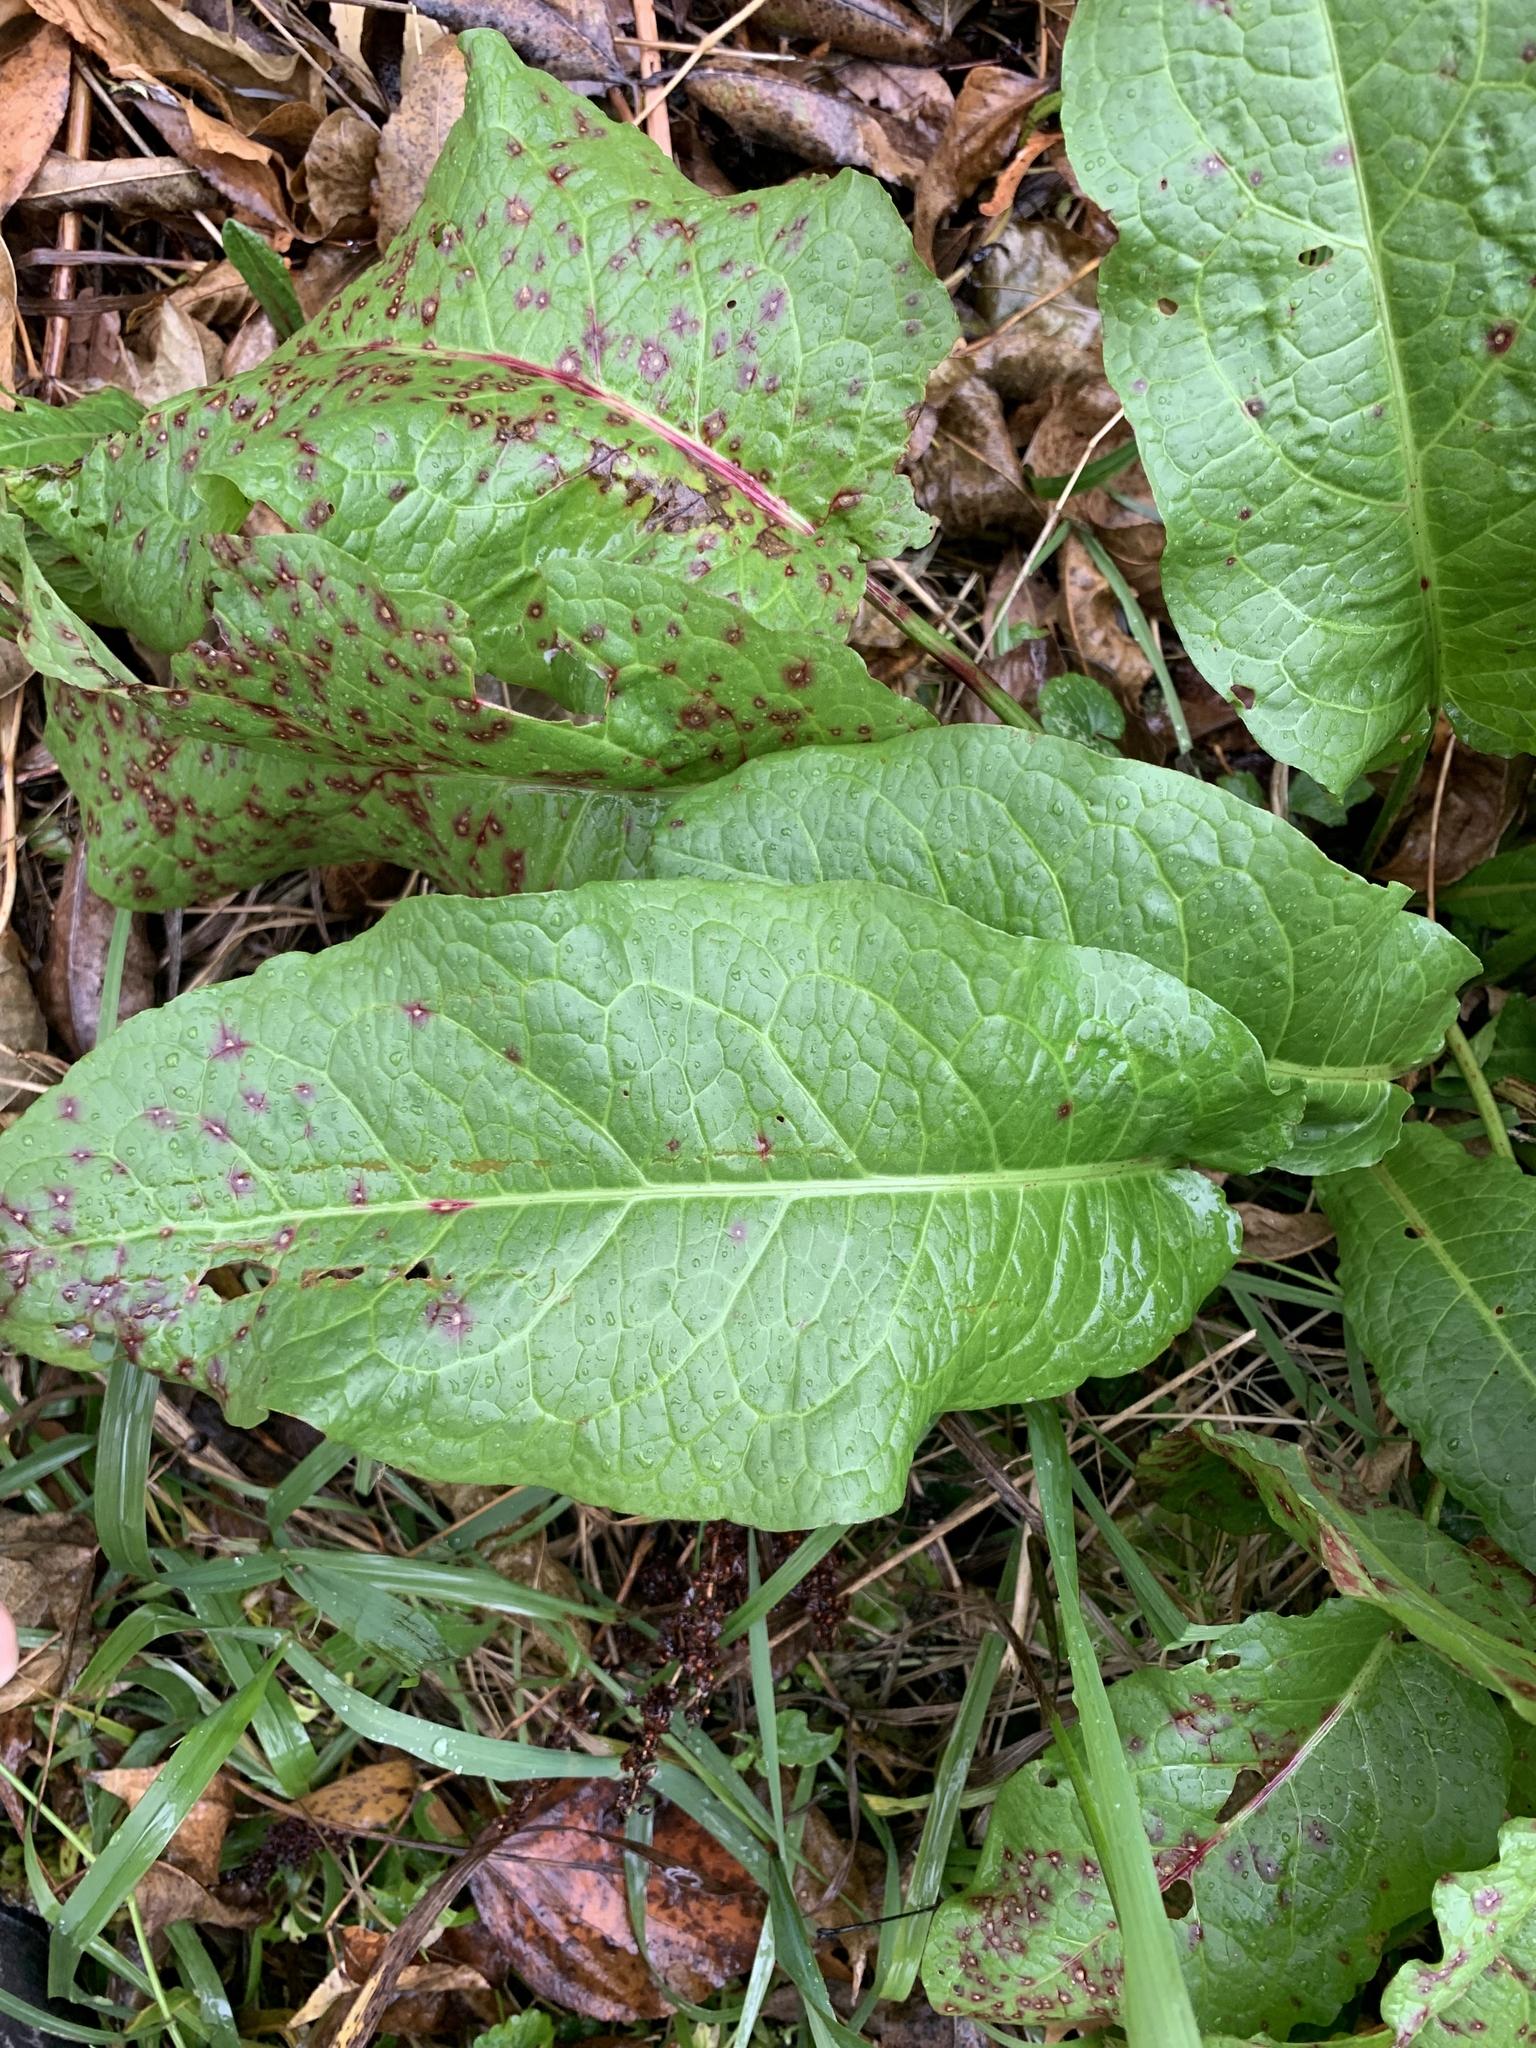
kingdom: Plantae
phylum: Tracheophyta
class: Magnoliopsida
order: Caryophyllales
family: Polygonaceae
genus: Rumex
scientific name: Rumex obtusifolius
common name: Bitter dock
